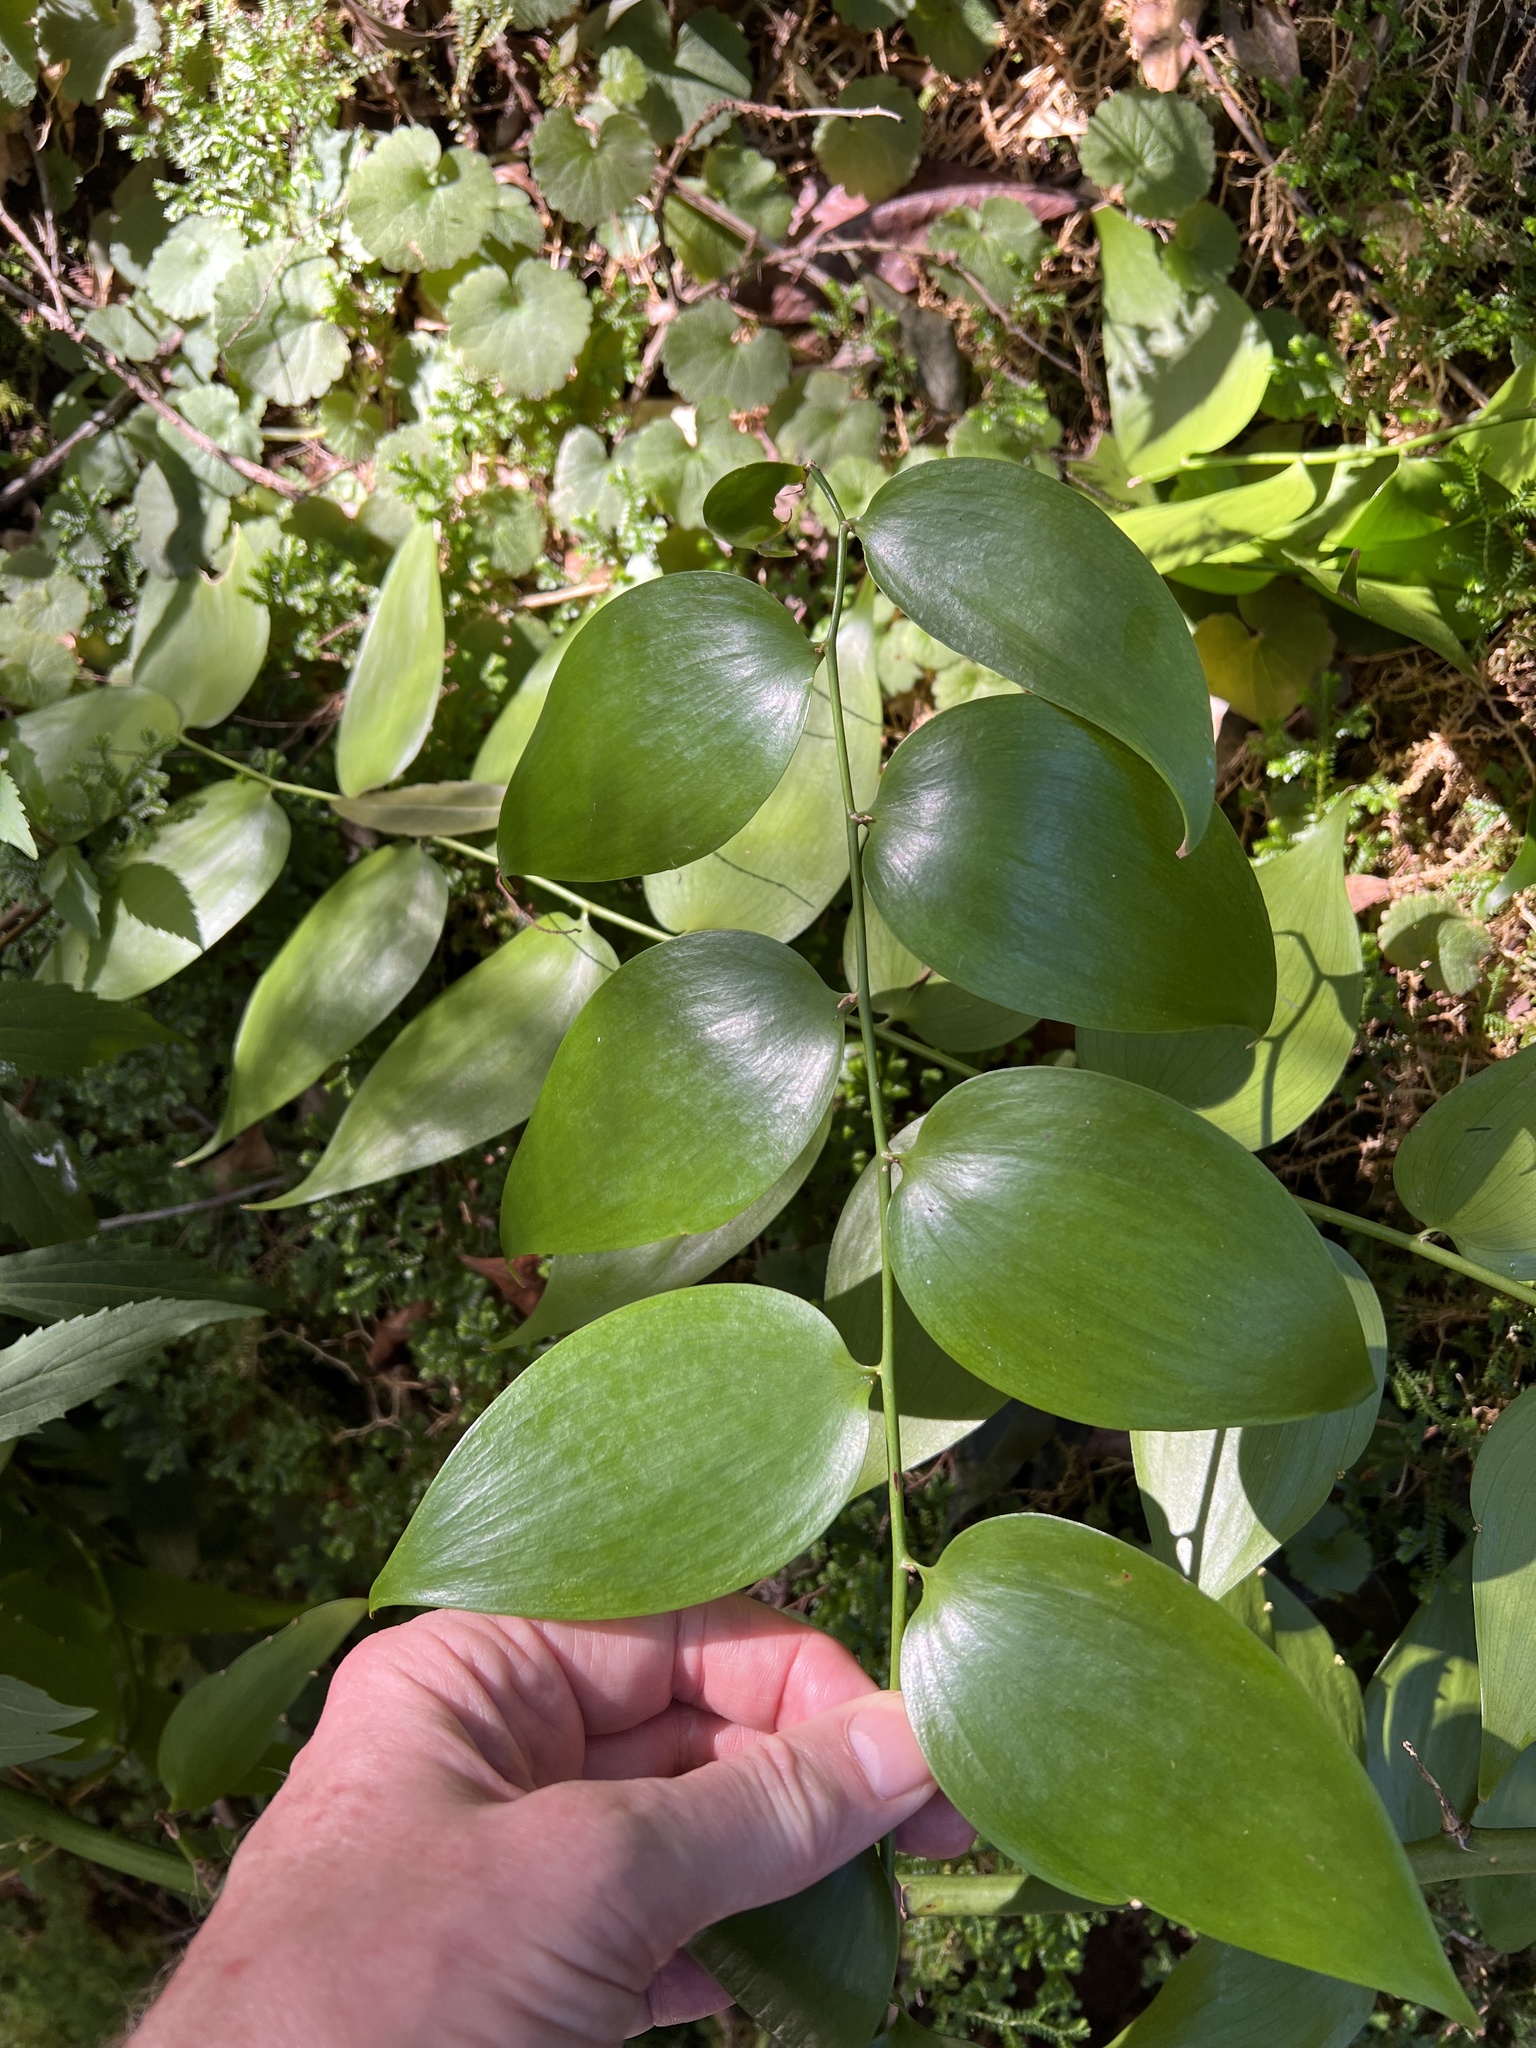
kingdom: Plantae
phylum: Tracheophyta
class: Liliopsida
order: Asparagales
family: Asparagaceae
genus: Semele
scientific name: Semele androgyna
